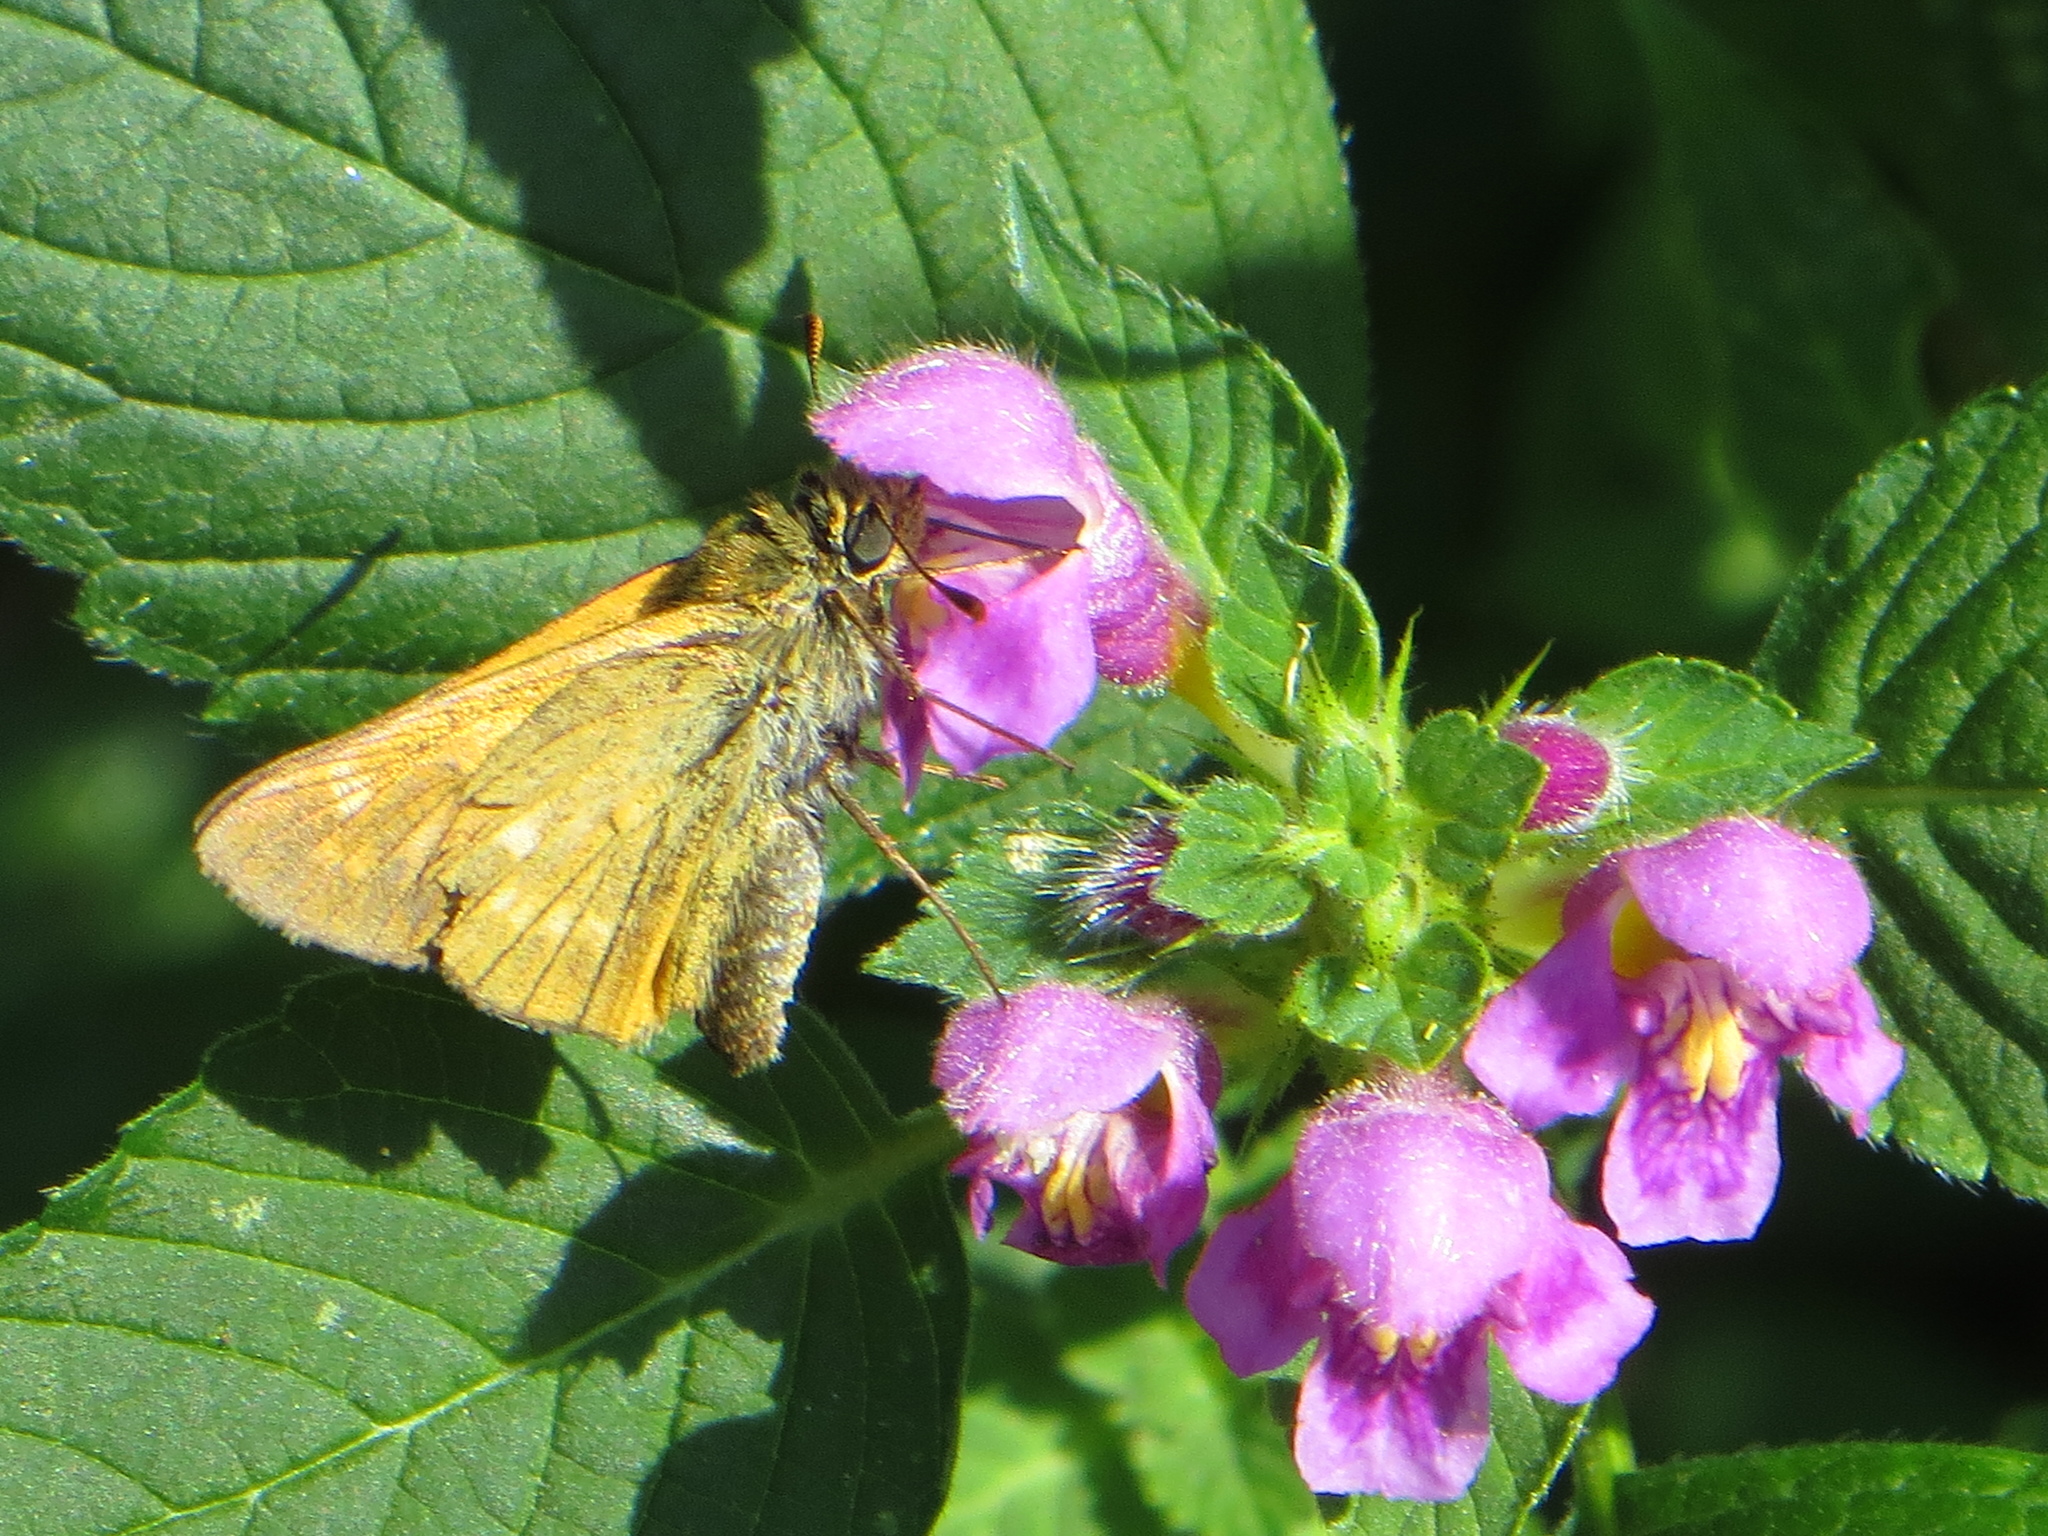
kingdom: Animalia
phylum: Arthropoda
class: Insecta
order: Lepidoptera
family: Hesperiidae
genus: Ochlodes
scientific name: Ochlodes venata
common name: Large skipper
